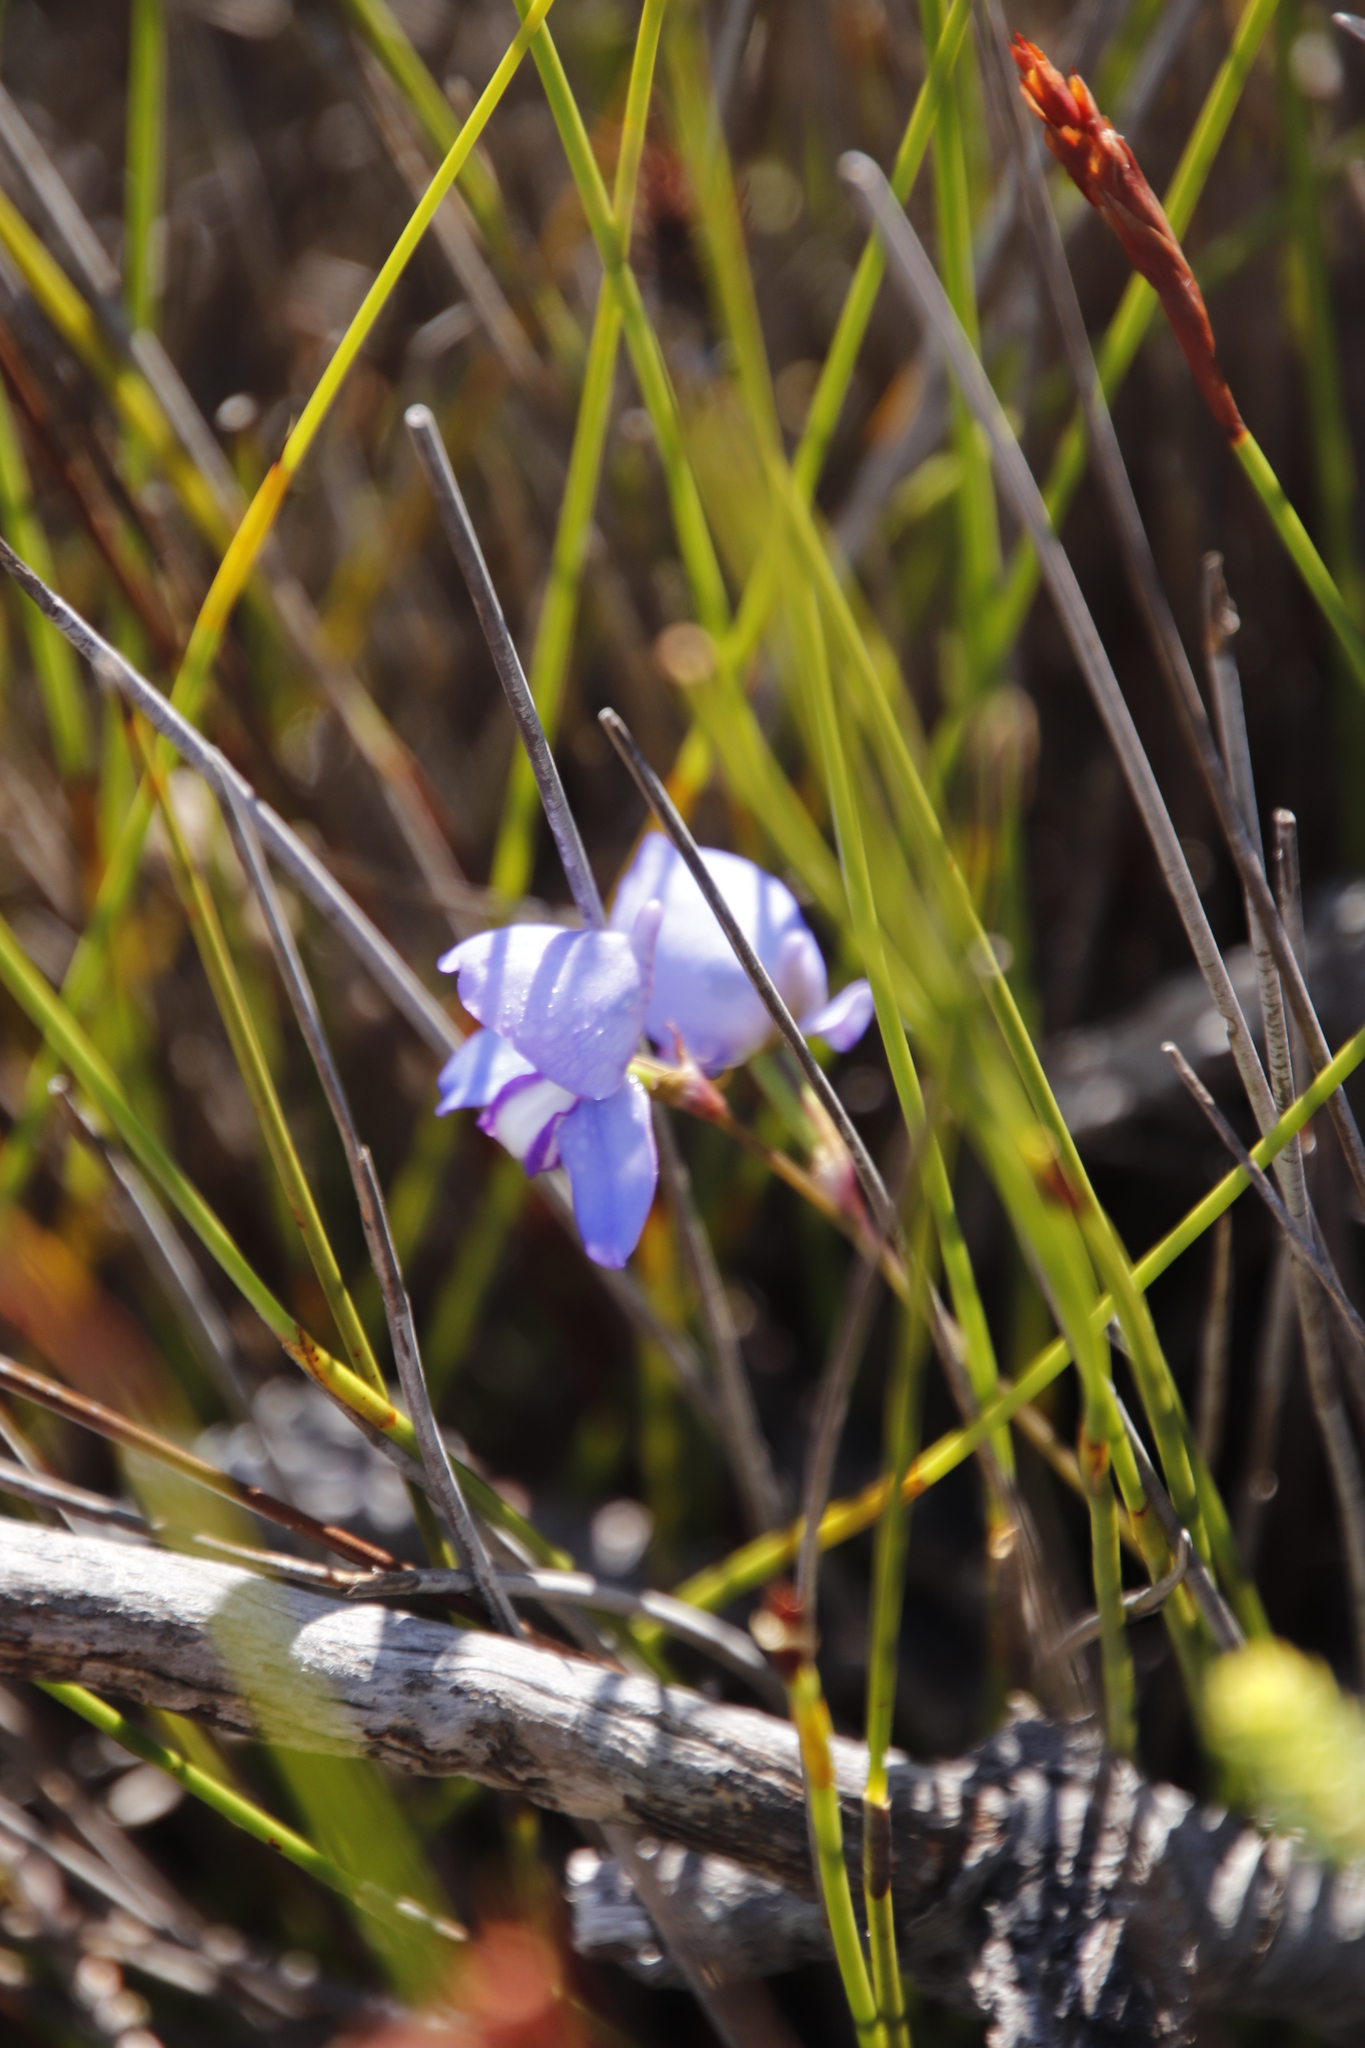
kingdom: Plantae
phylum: Tracheophyta
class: Liliopsida
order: Asparagales
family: Orchidaceae
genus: Disa
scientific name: Disa graminifolia
